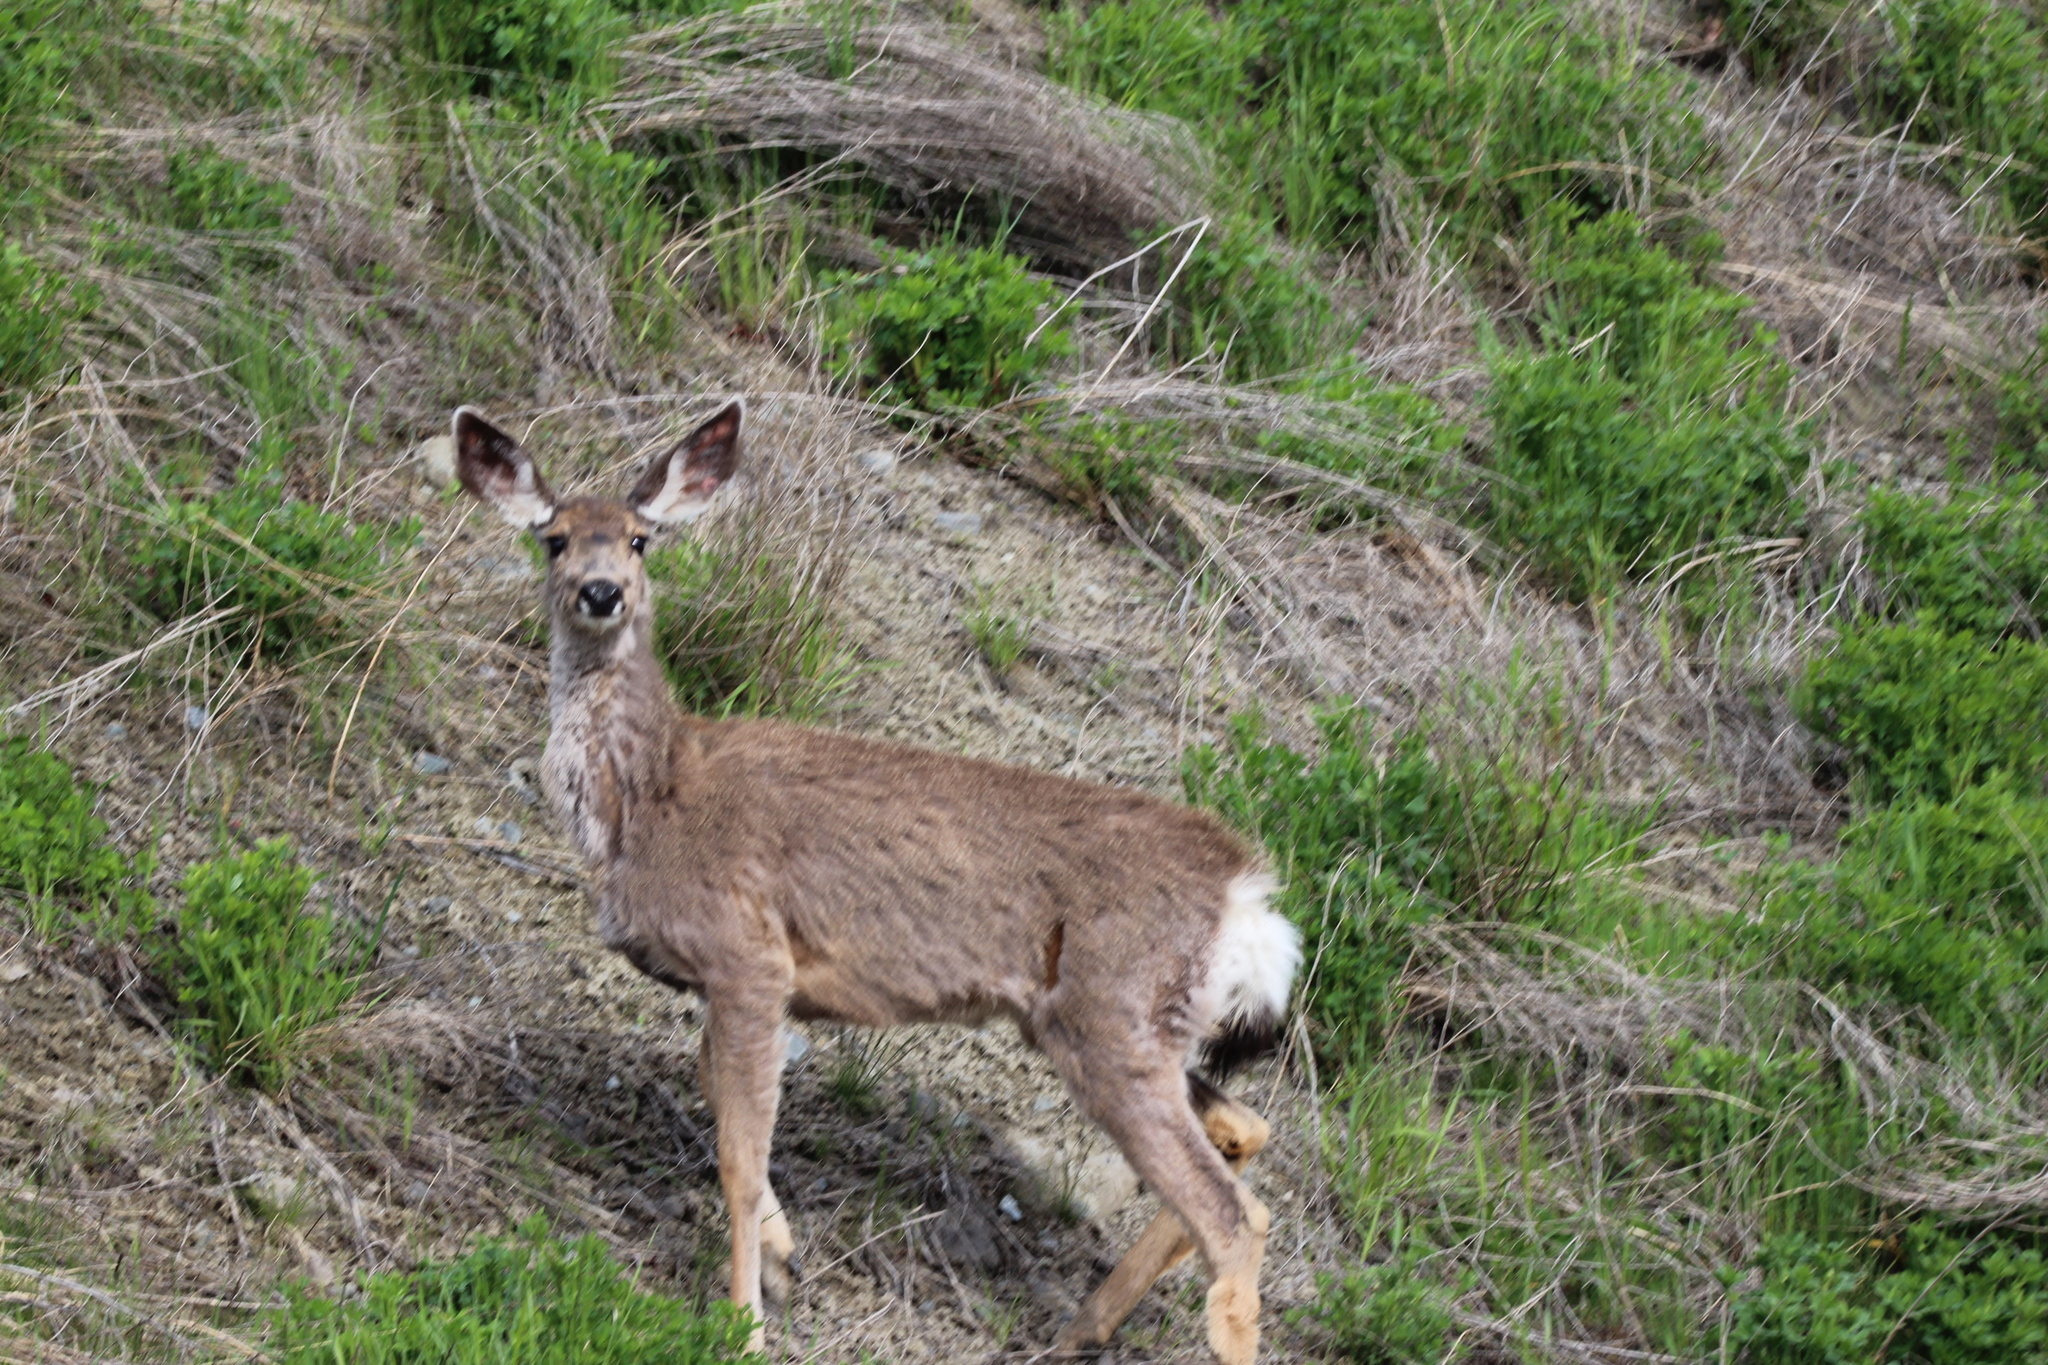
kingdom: Animalia
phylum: Chordata
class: Mammalia
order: Artiodactyla
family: Cervidae
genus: Odocoileus
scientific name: Odocoileus hemionus
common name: Mule deer
